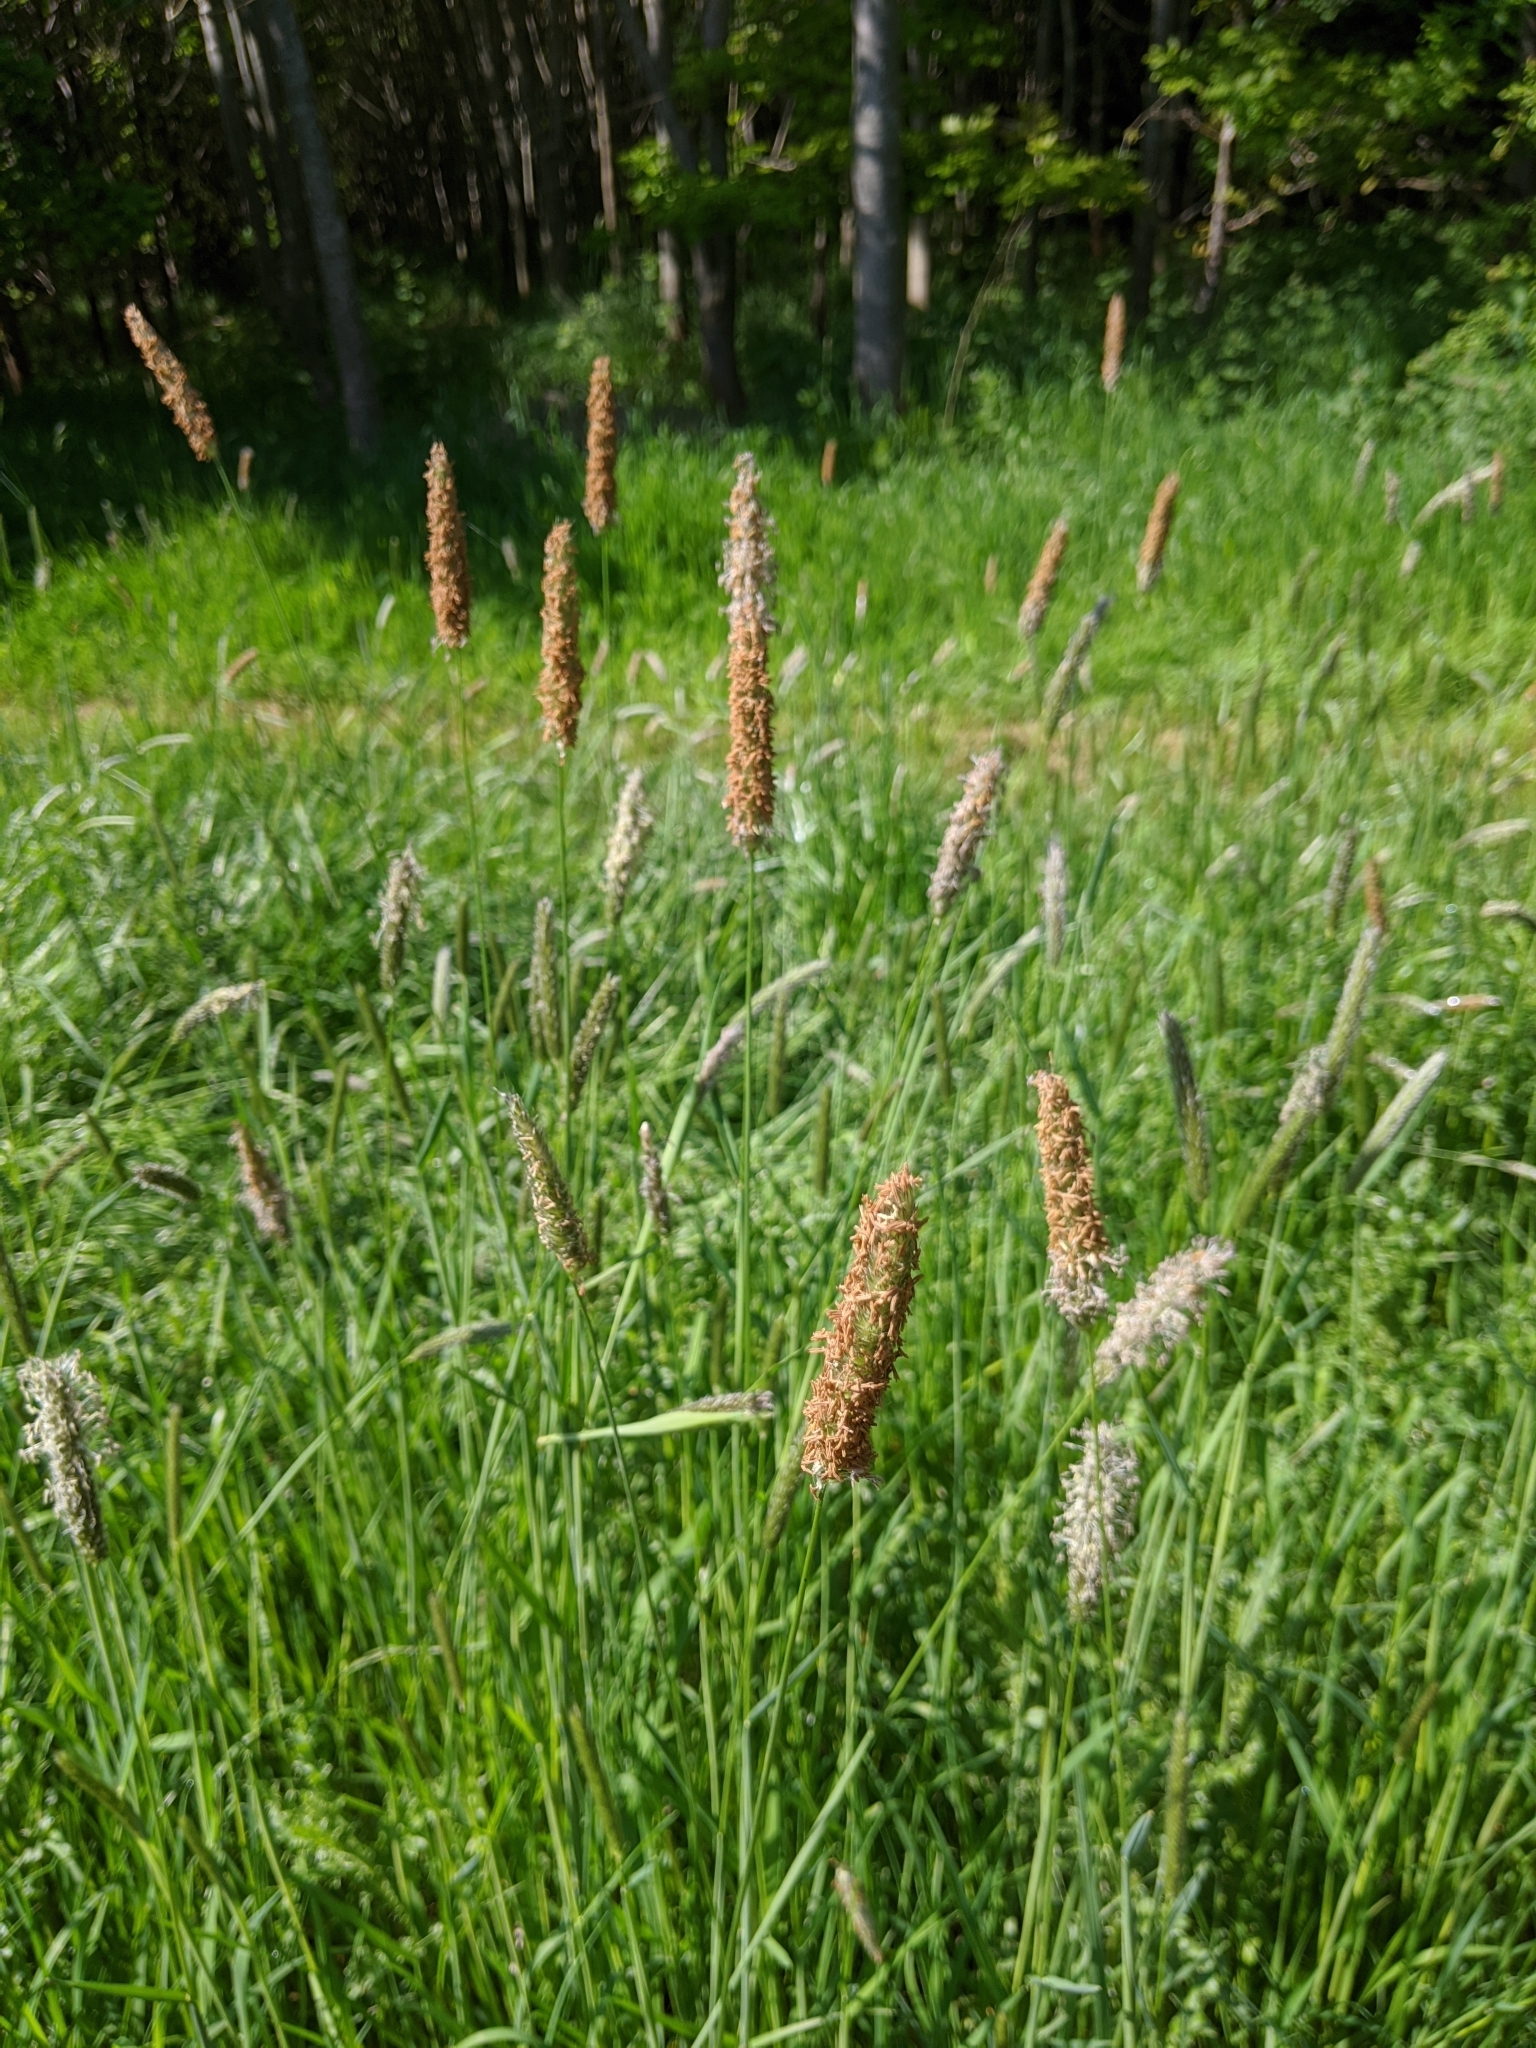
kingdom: Plantae
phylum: Tracheophyta
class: Liliopsida
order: Poales
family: Poaceae
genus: Alopecurus
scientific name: Alopecurus pratensis
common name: Meadow foxtail
